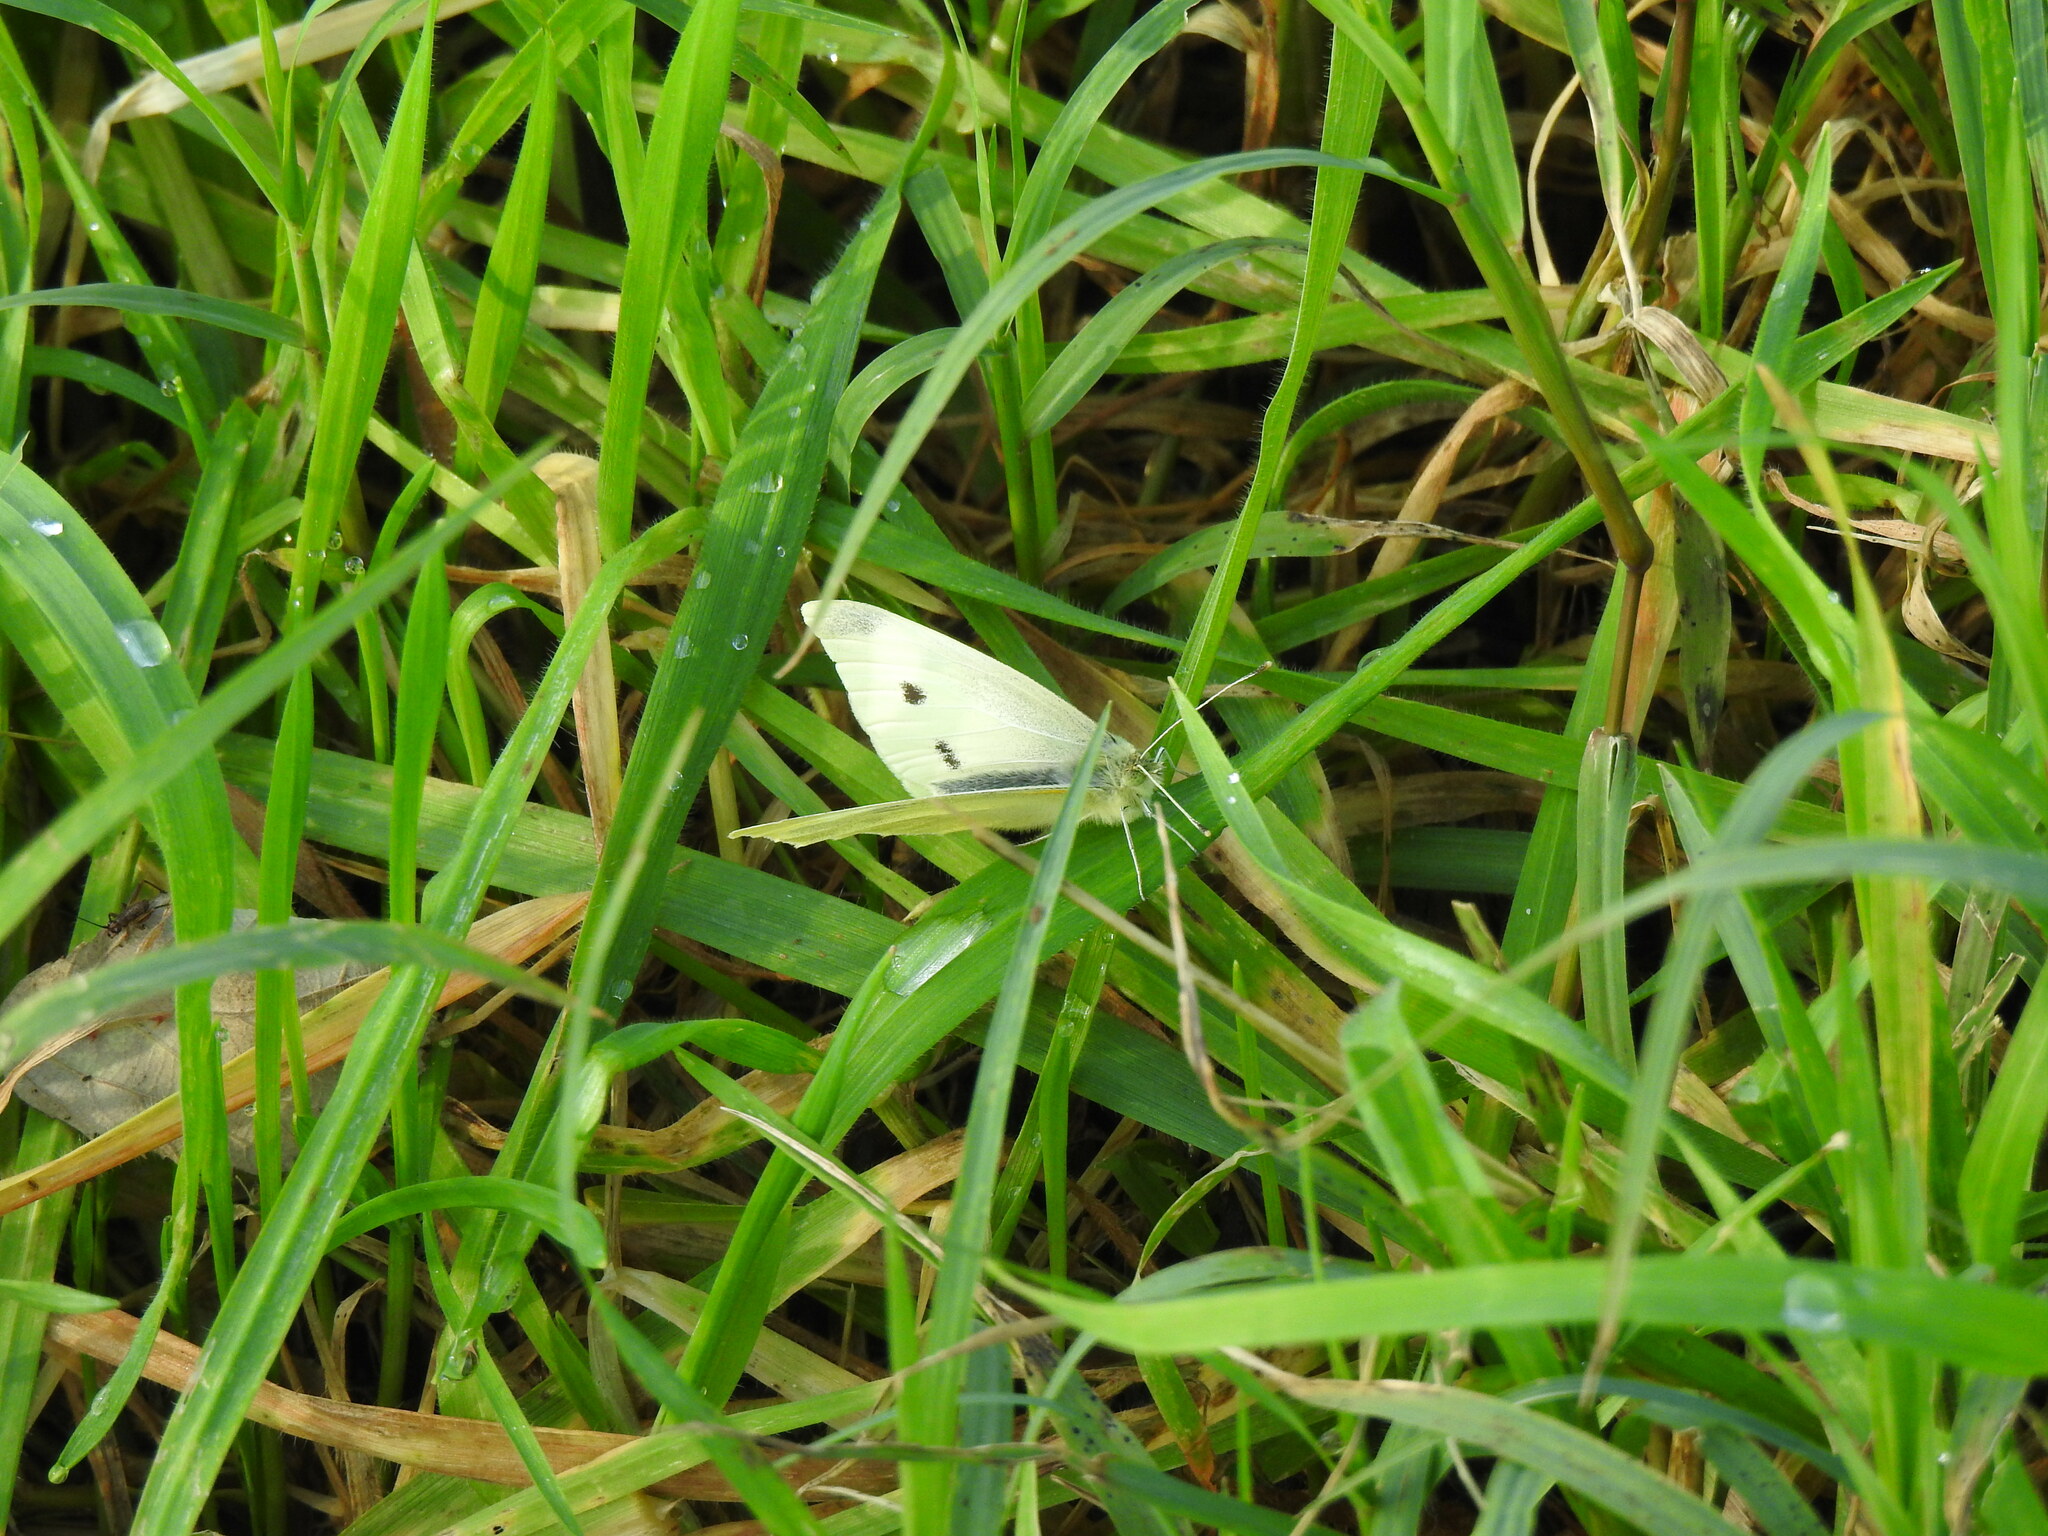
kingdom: Animalia
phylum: Arthropoda
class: Insecta
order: Lepidoptera
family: Pieridae
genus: Pieris
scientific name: Pieris rapae
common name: Small white
